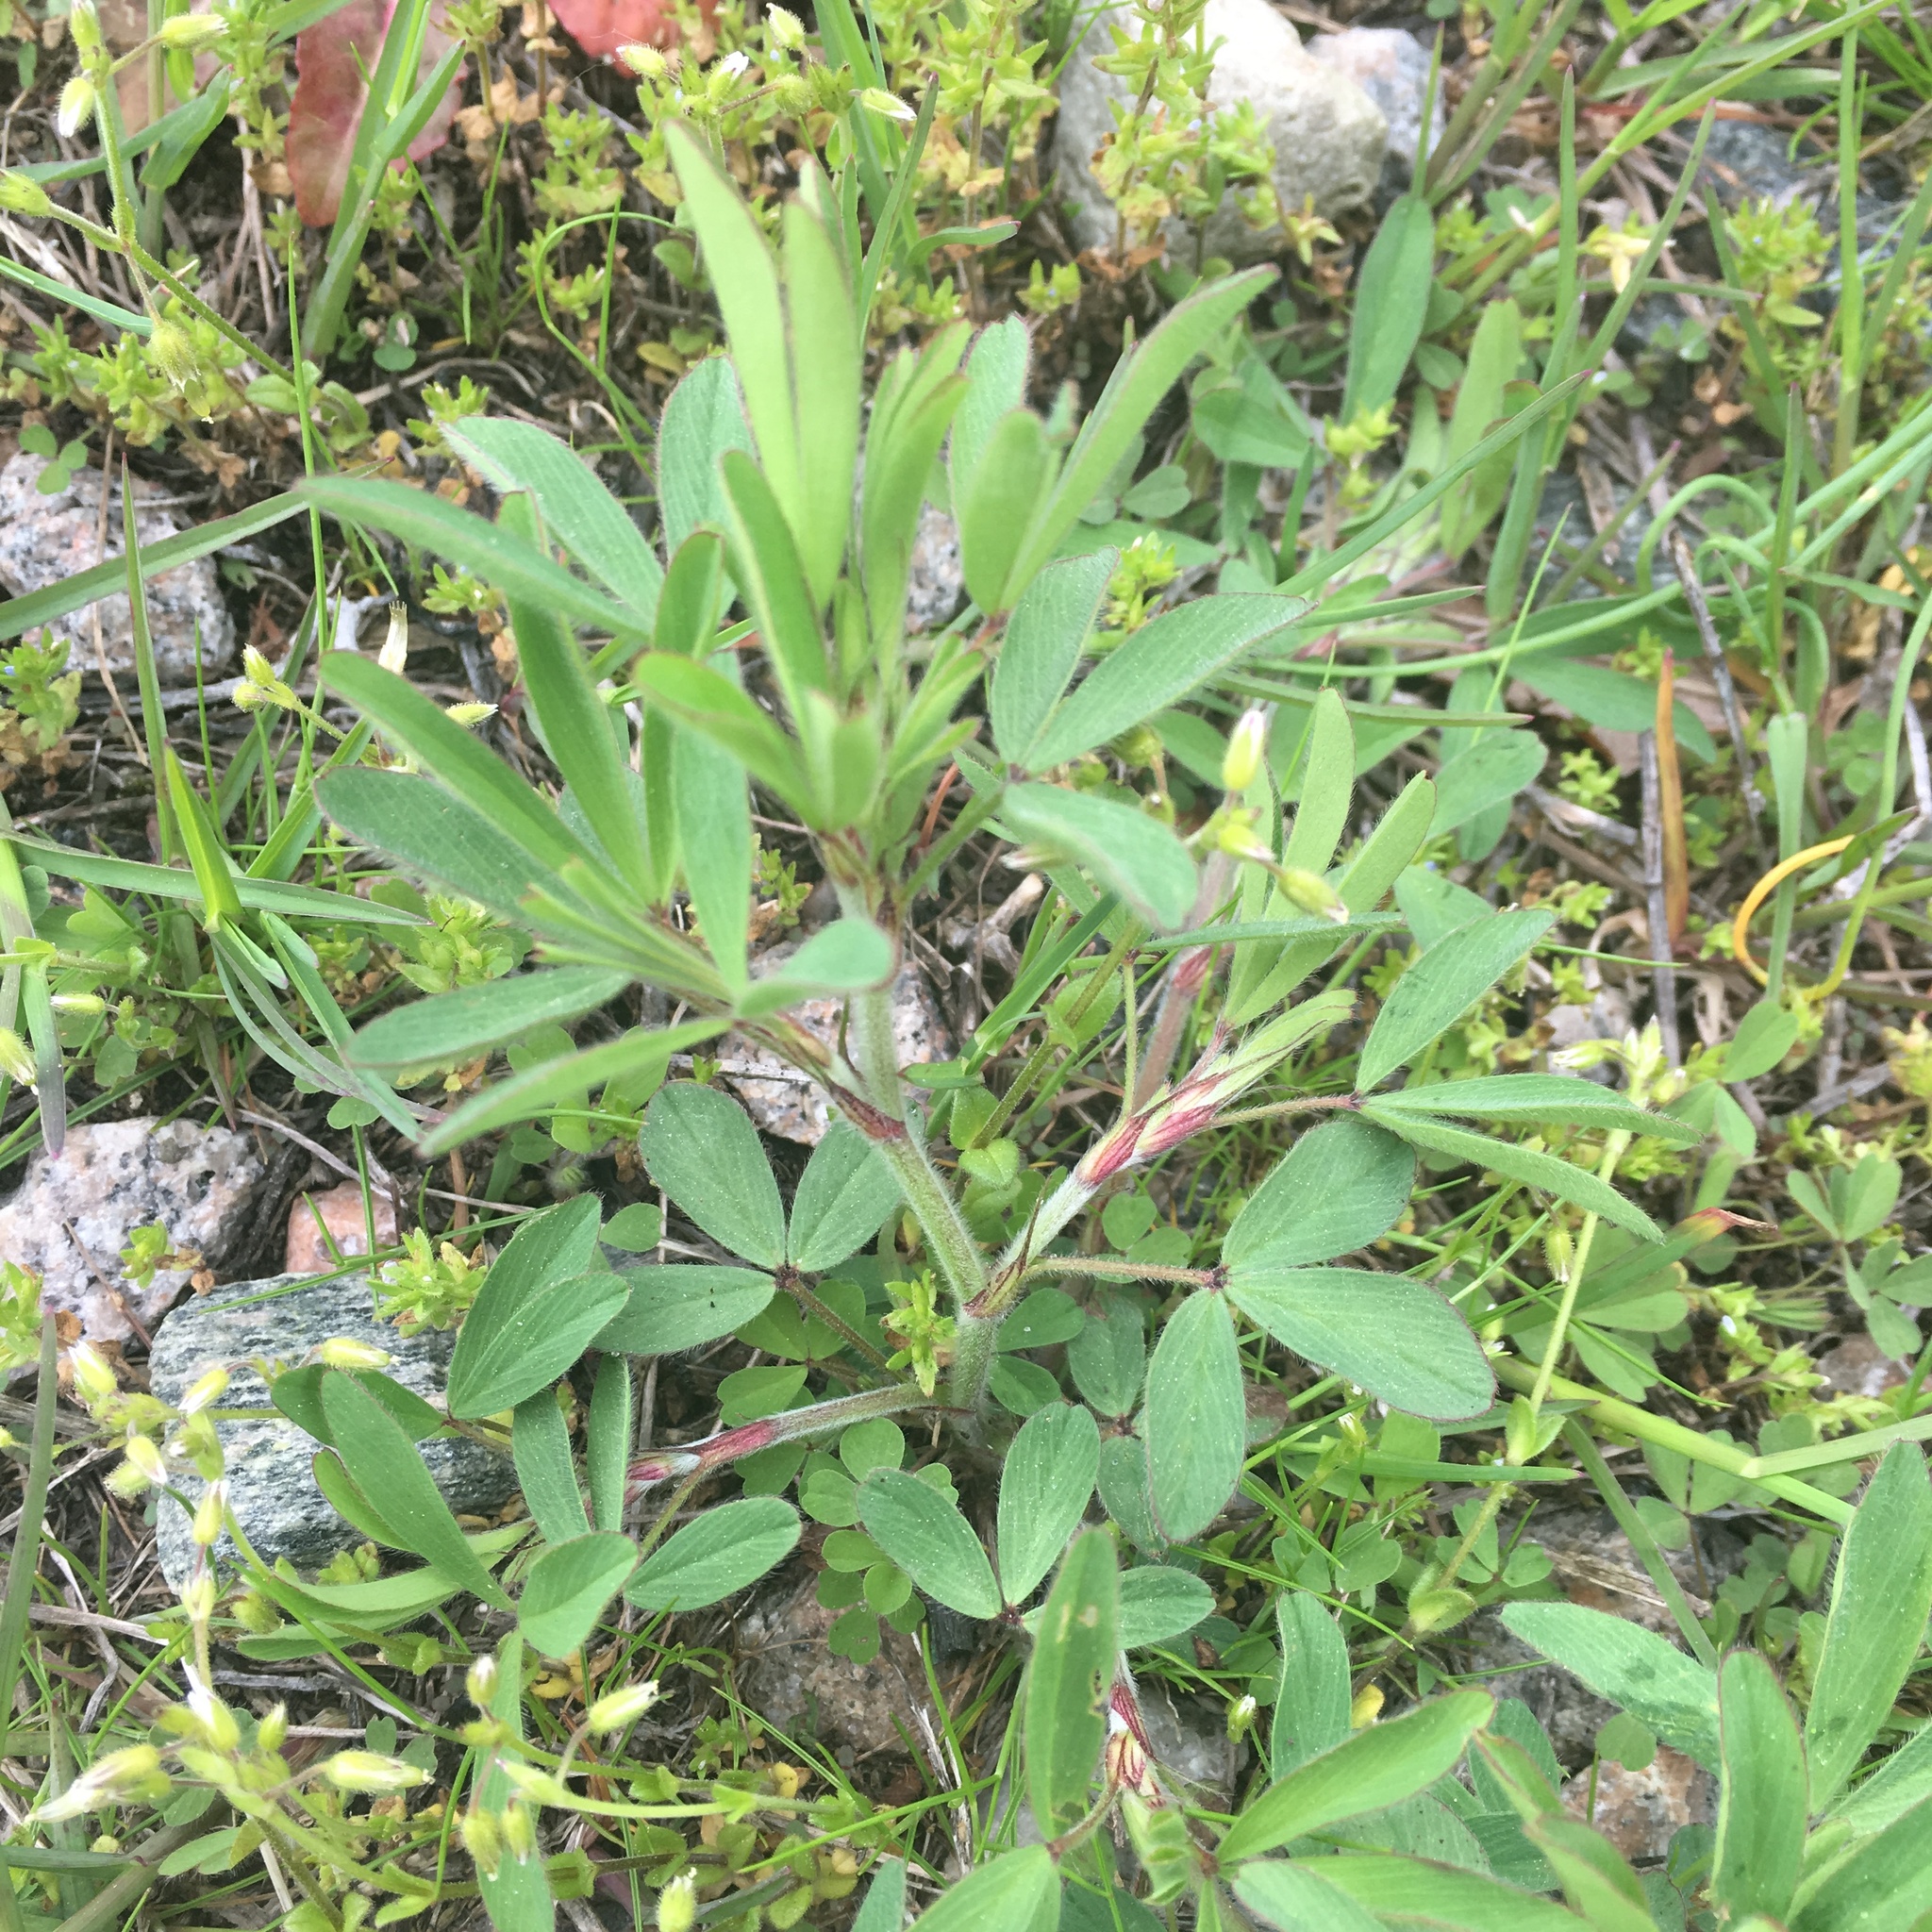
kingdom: Plantae
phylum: Tracheophyta
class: Magnoliopsida
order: Fabales
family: Fabaceae
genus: Trifolium
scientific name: Trifolium arvense
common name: Hare's-foot clover
